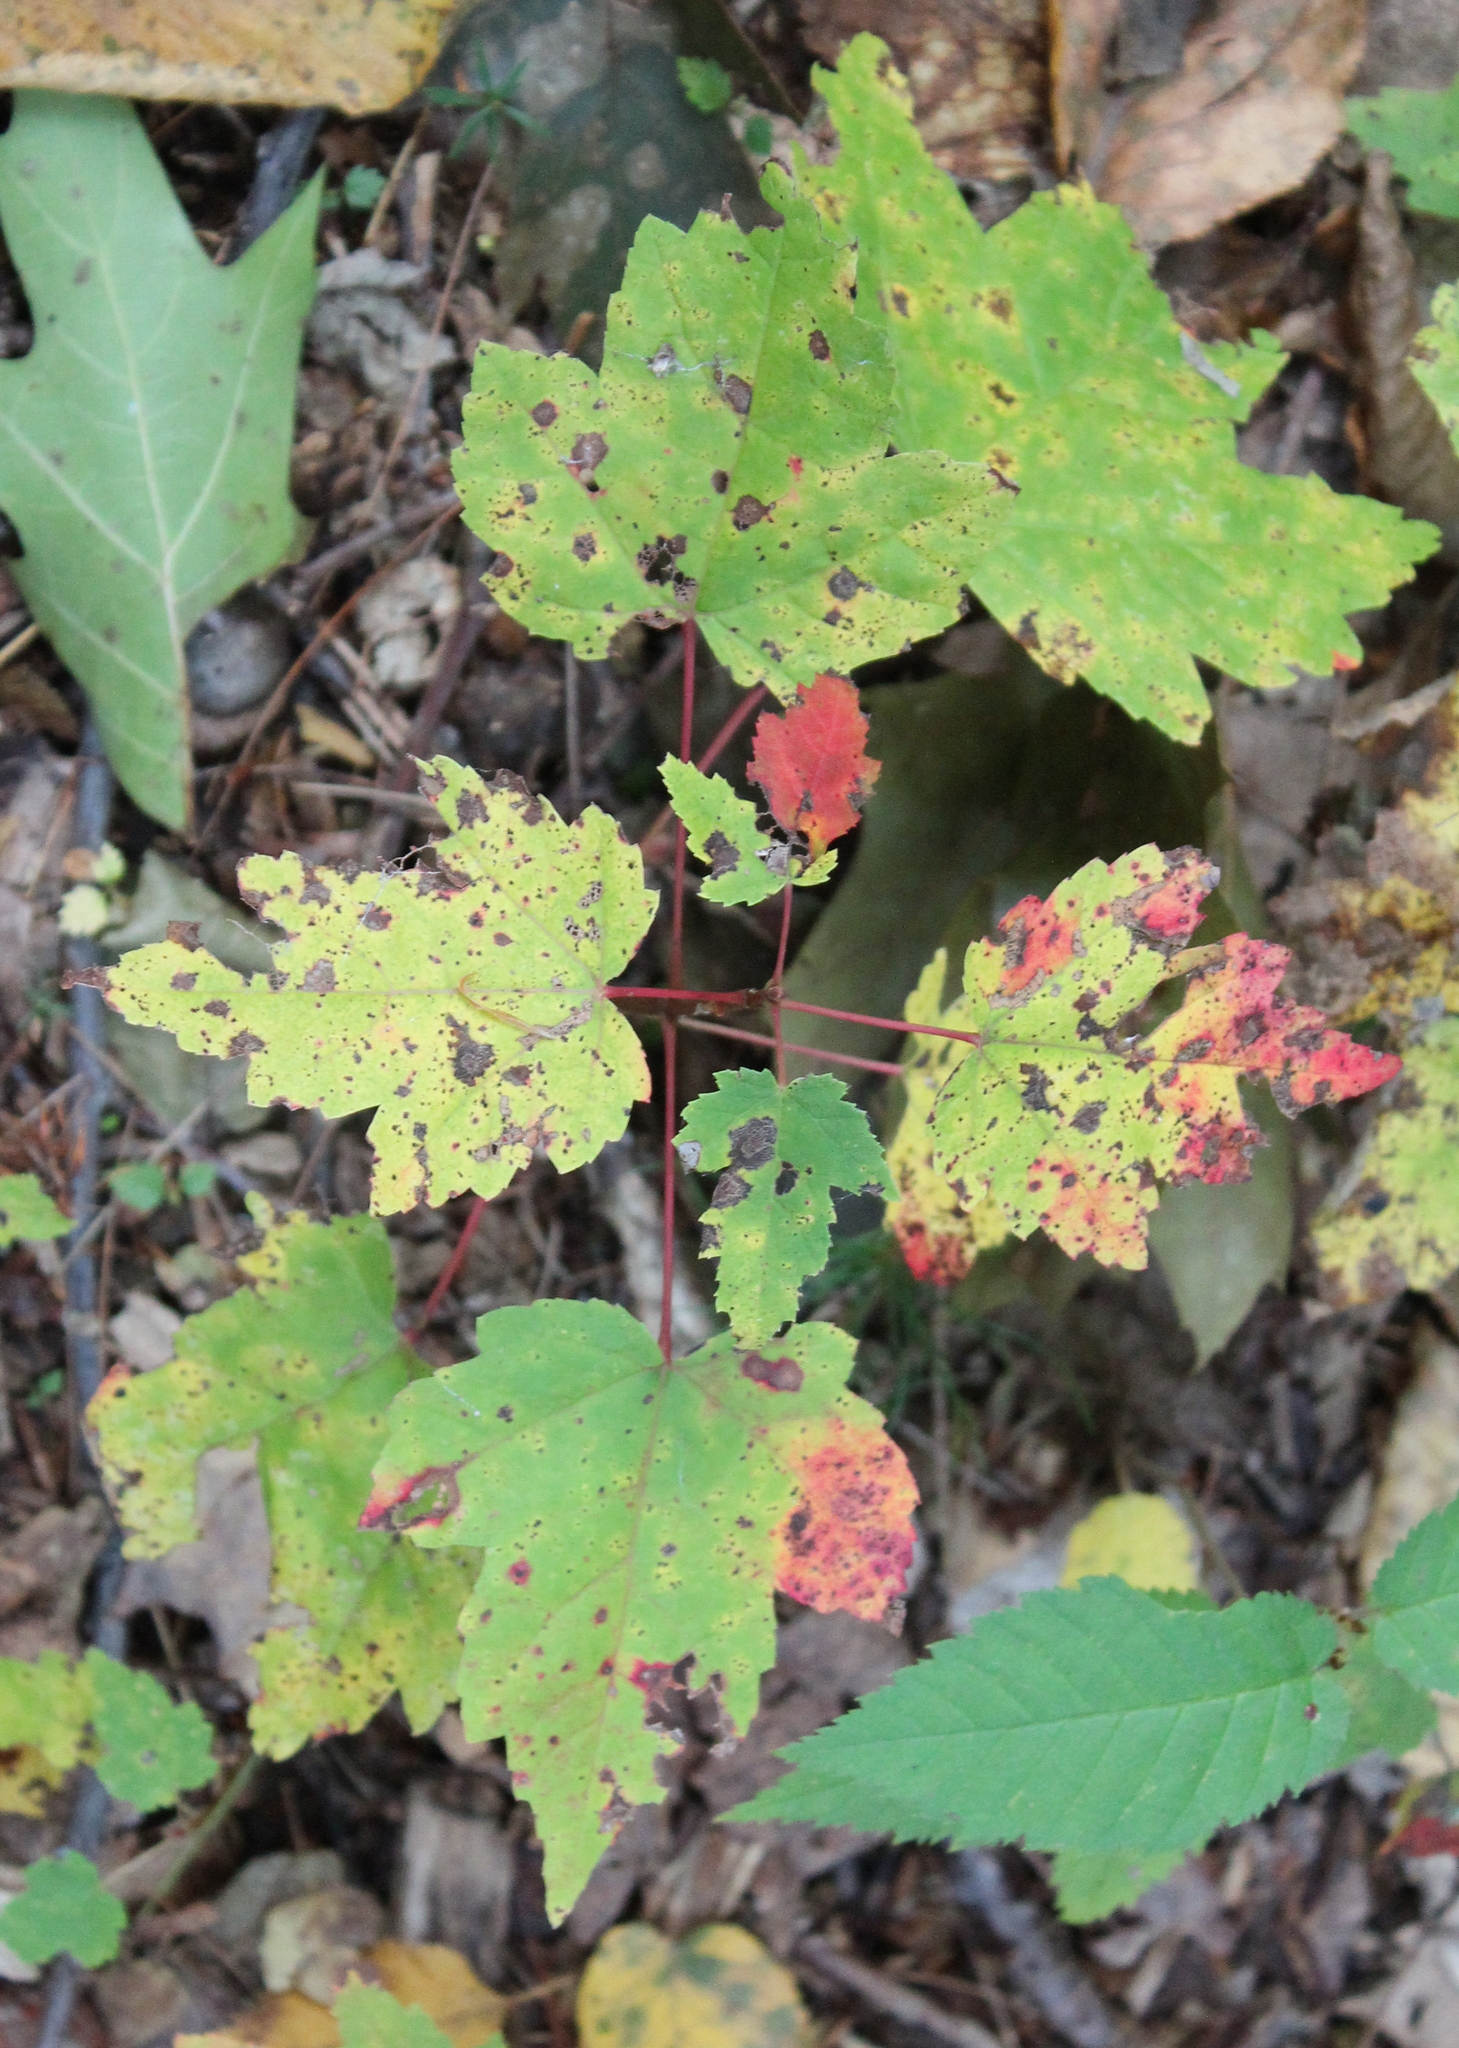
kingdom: Plantae
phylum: Tracheophyta
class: Magnoliopsida
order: Sapindales
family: Sapindaceae
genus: Acer
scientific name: Acer rubrum
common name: Red maple
